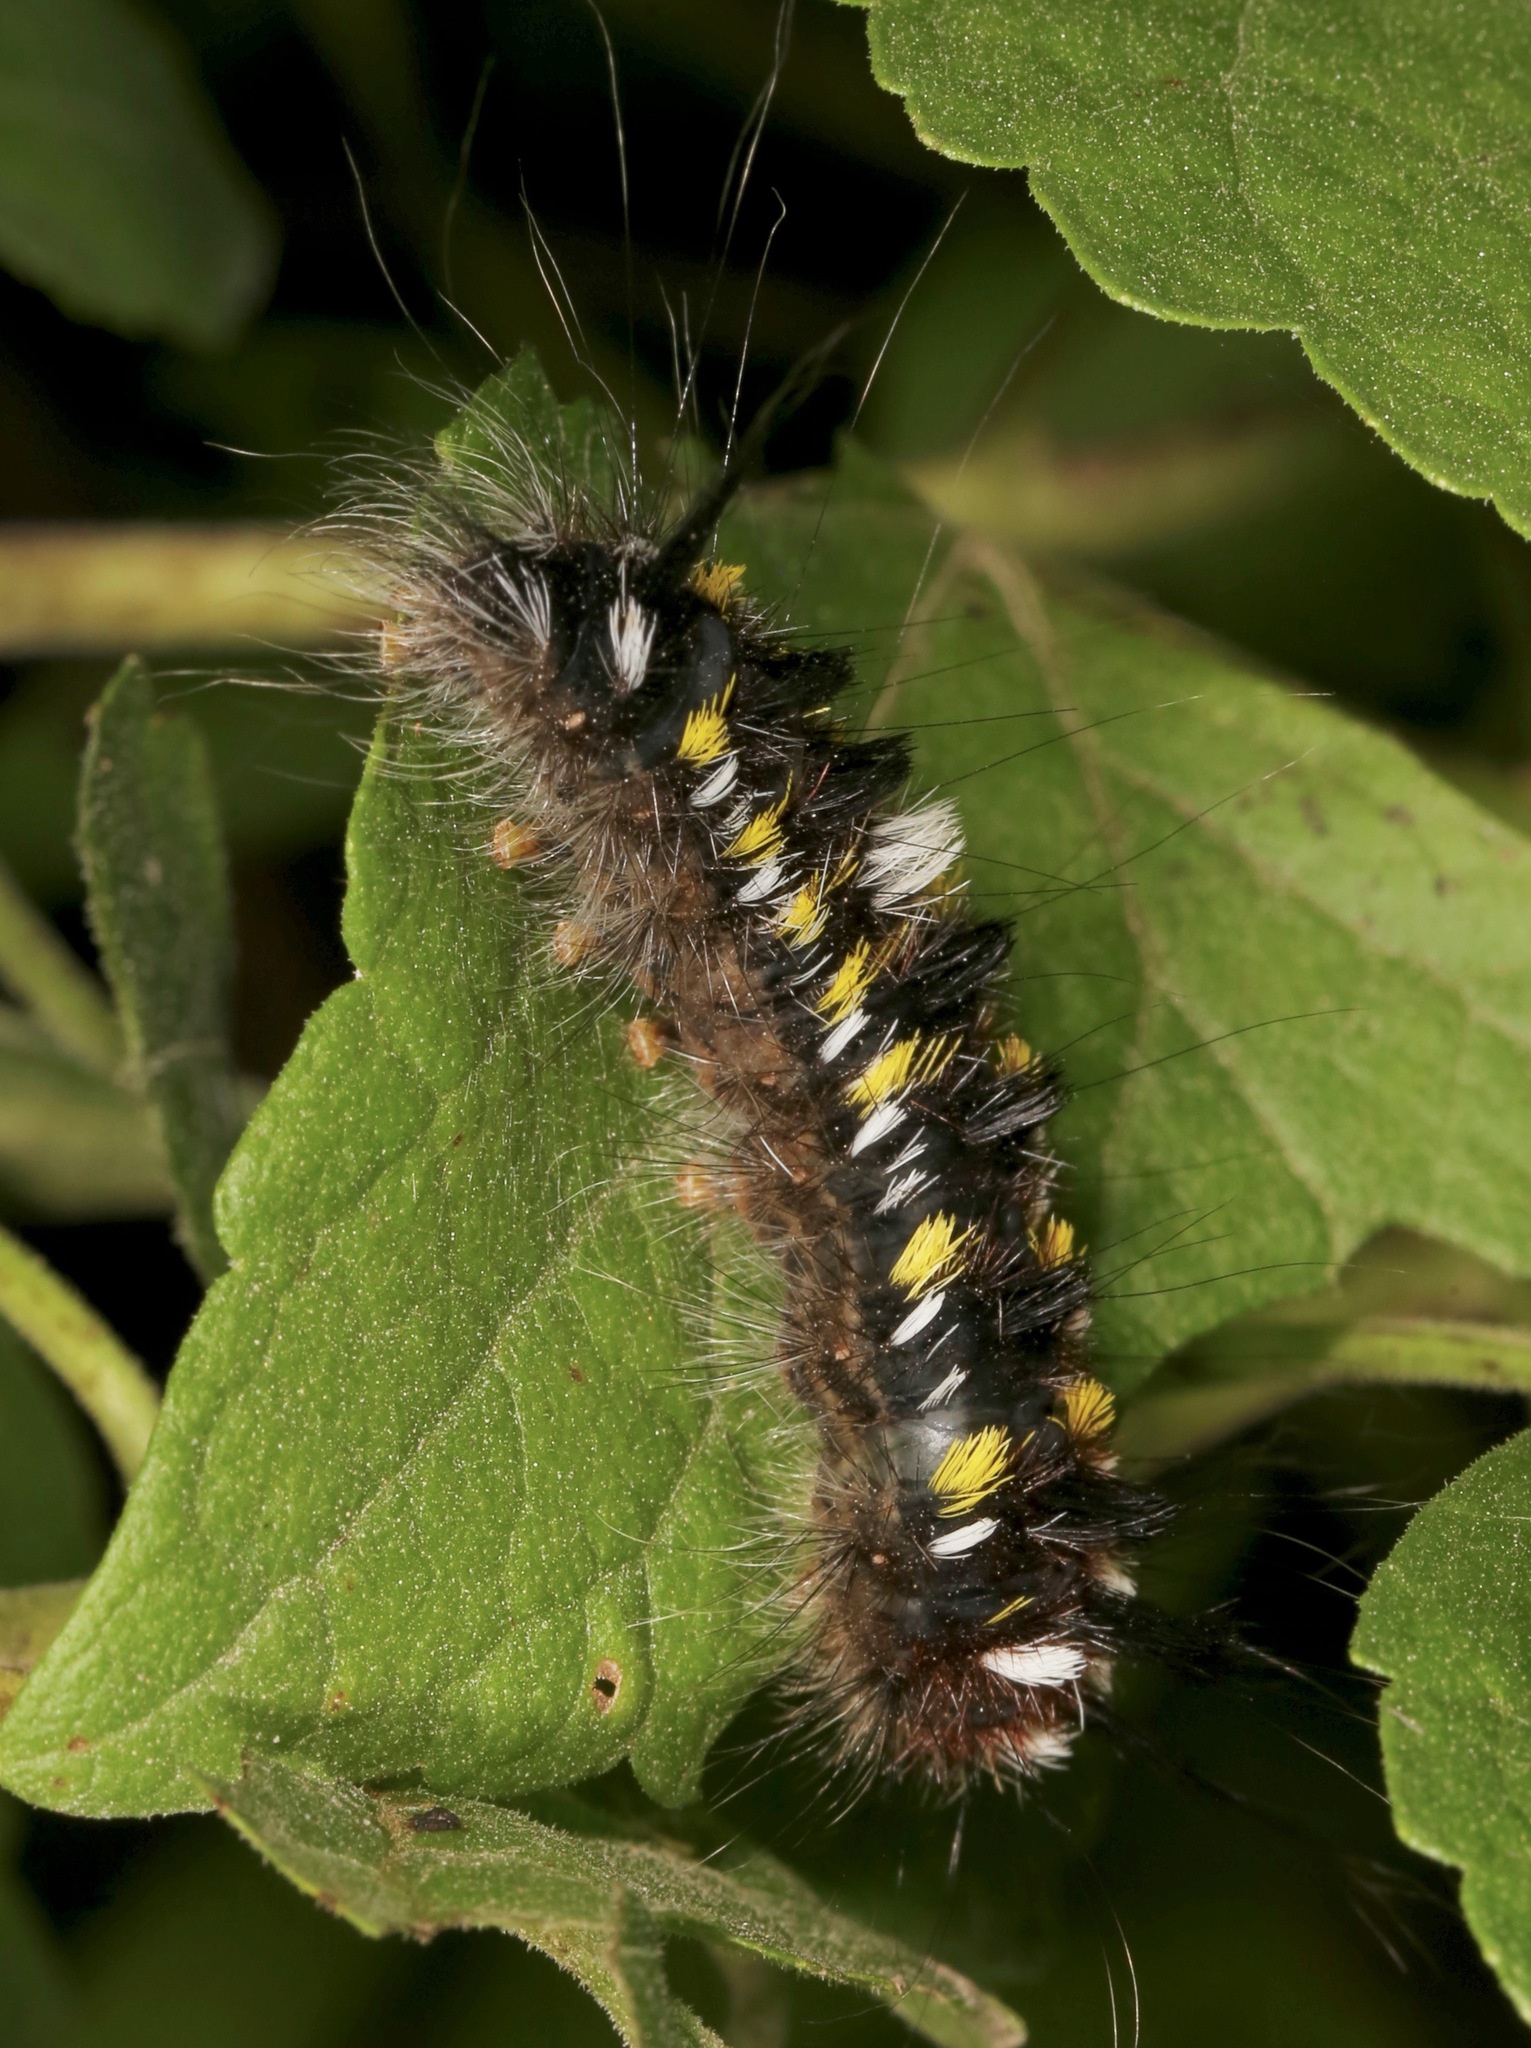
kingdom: Animalia
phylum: Arthropoda
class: Insecta
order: Lepidoptera
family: Apatelodidae
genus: Hygrochroa
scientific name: Hygrochroa Apatelodes pudefacta
